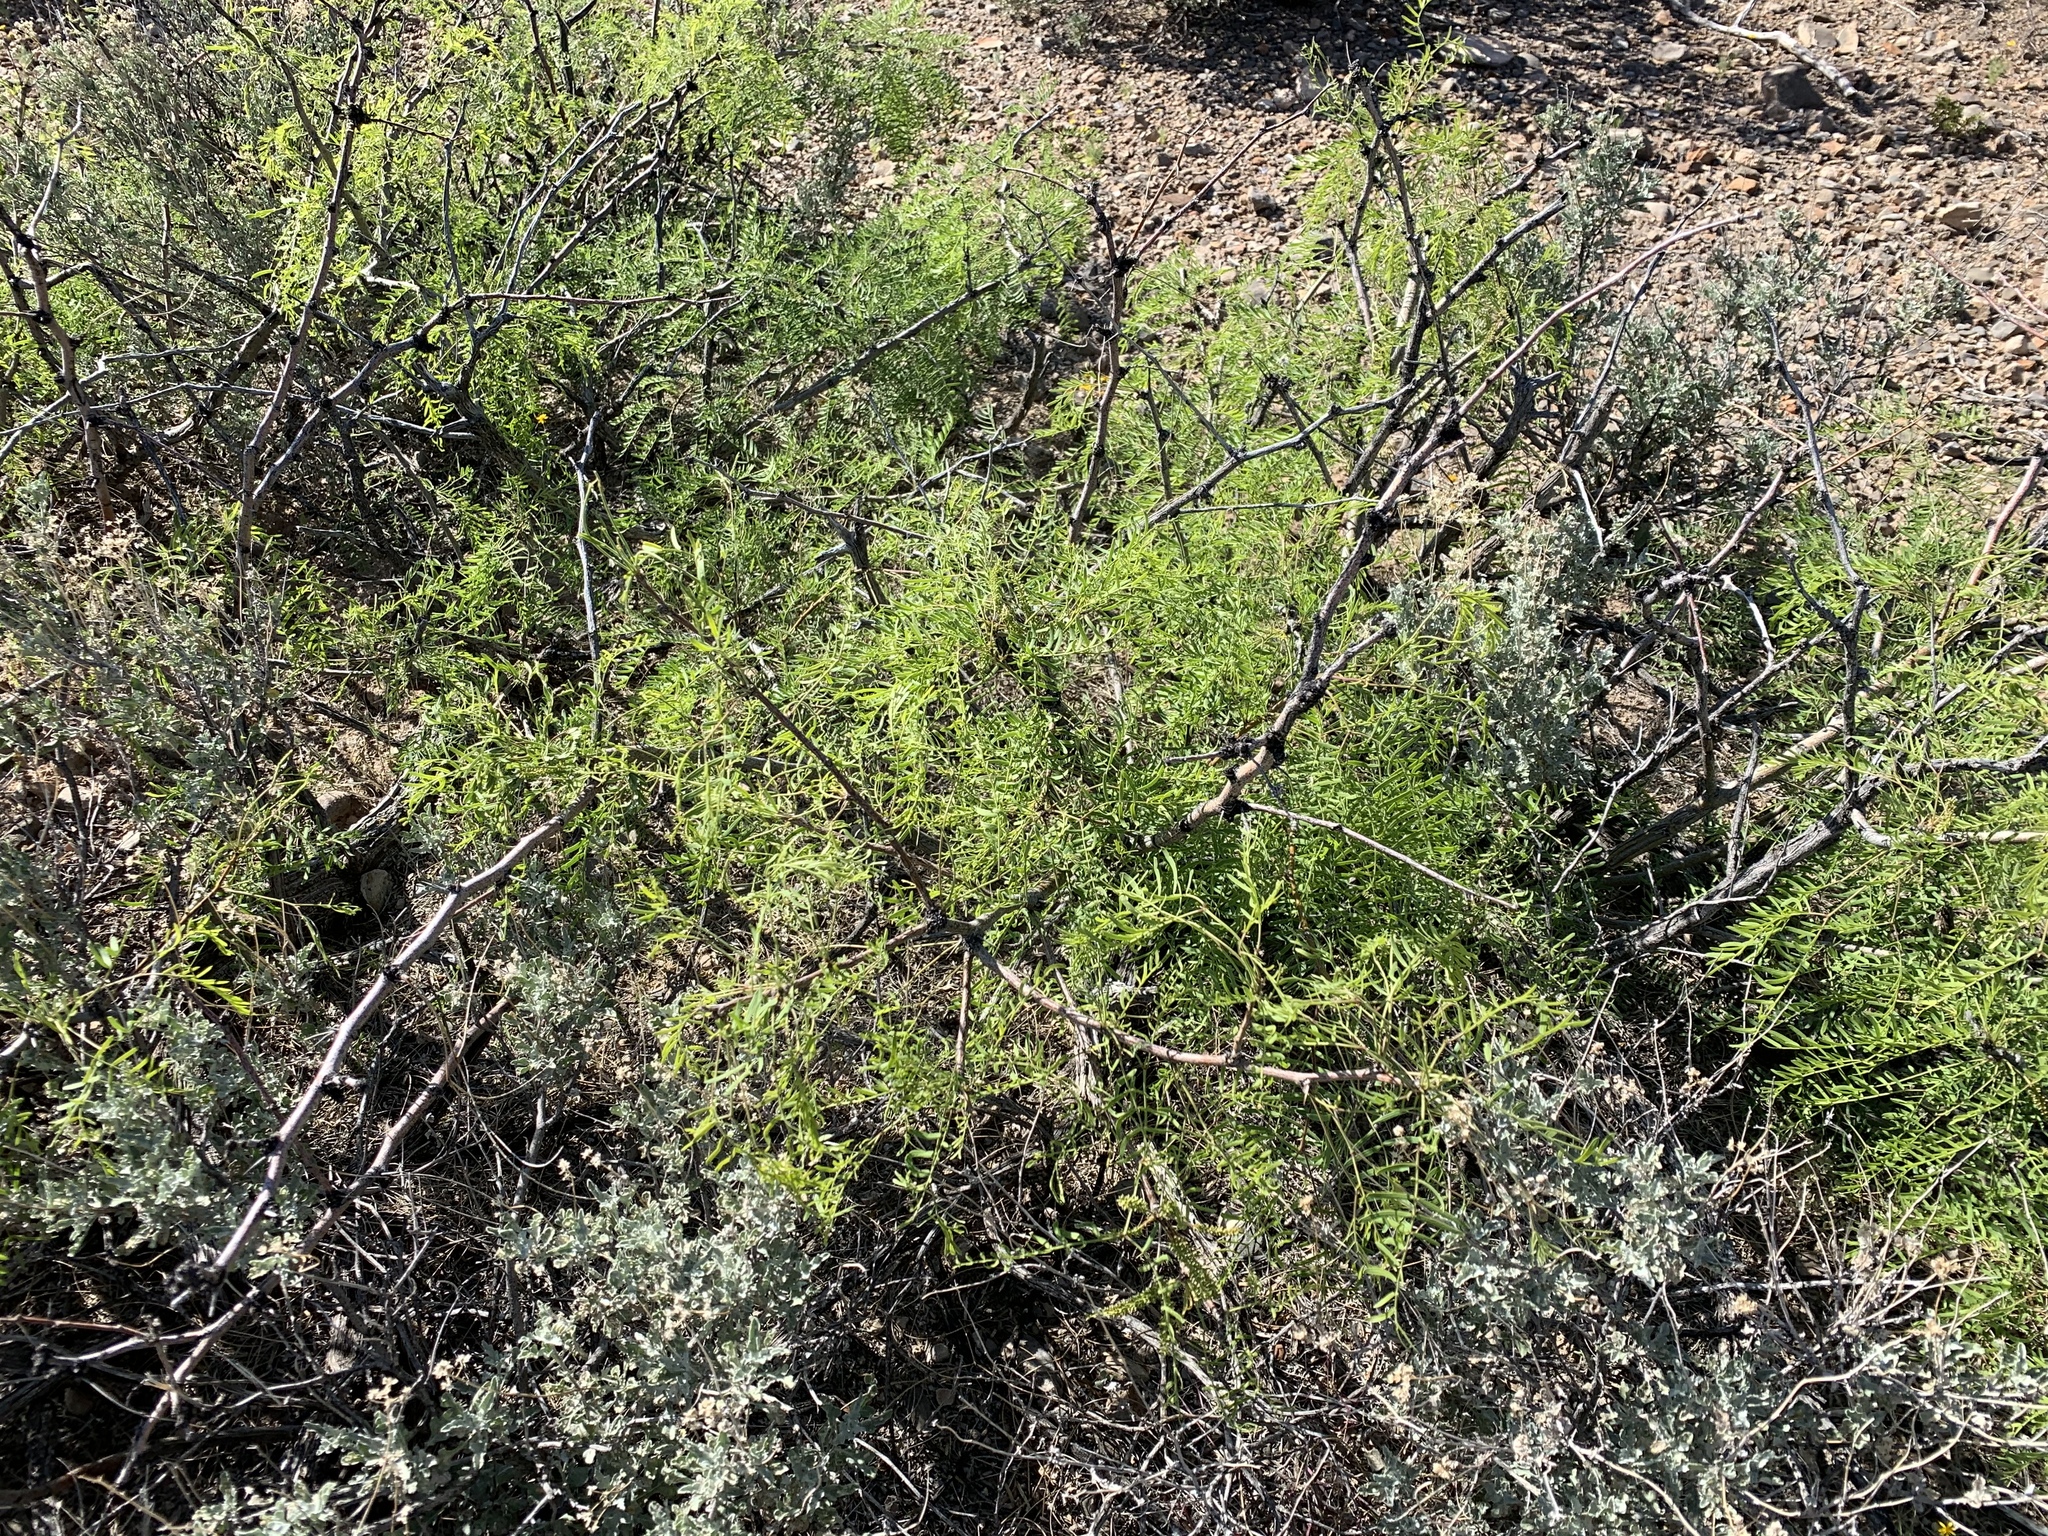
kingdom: Plantae
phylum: Tracheophyta
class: Magnoliopsida
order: Fabales
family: Fabaceae
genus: Prosopis
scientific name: Prosopis glandulosa
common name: Honey mesquite
